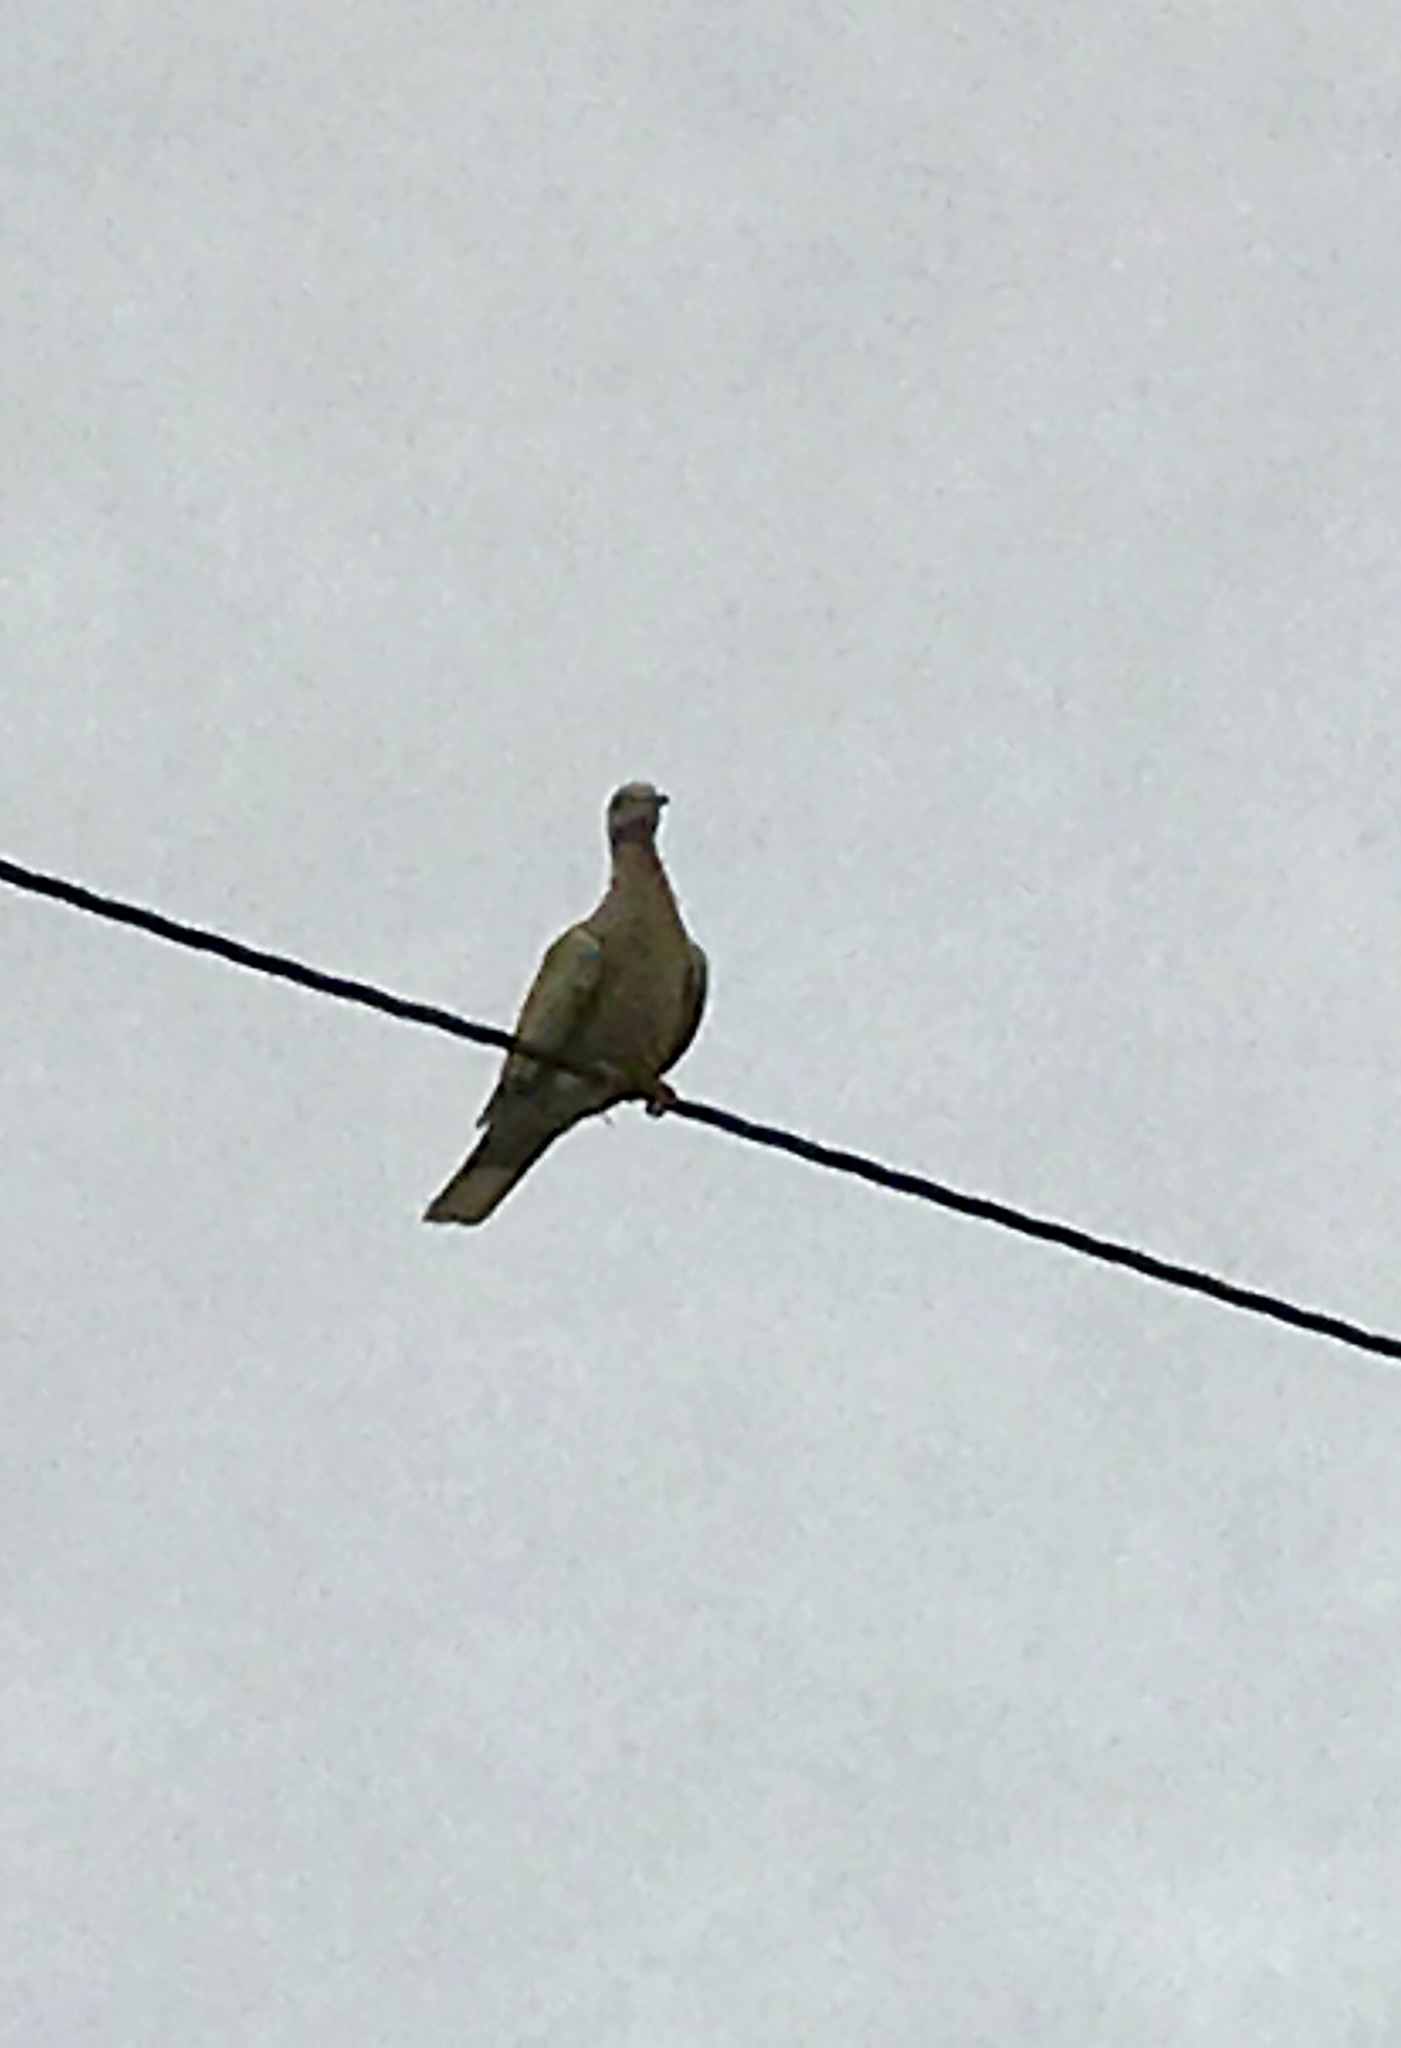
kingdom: Animalia
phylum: Chordata
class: Aves
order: Columbiformes
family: Columbidae
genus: Streptopelia
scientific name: Streptopelia decaocto
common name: Eurasian collared dove
